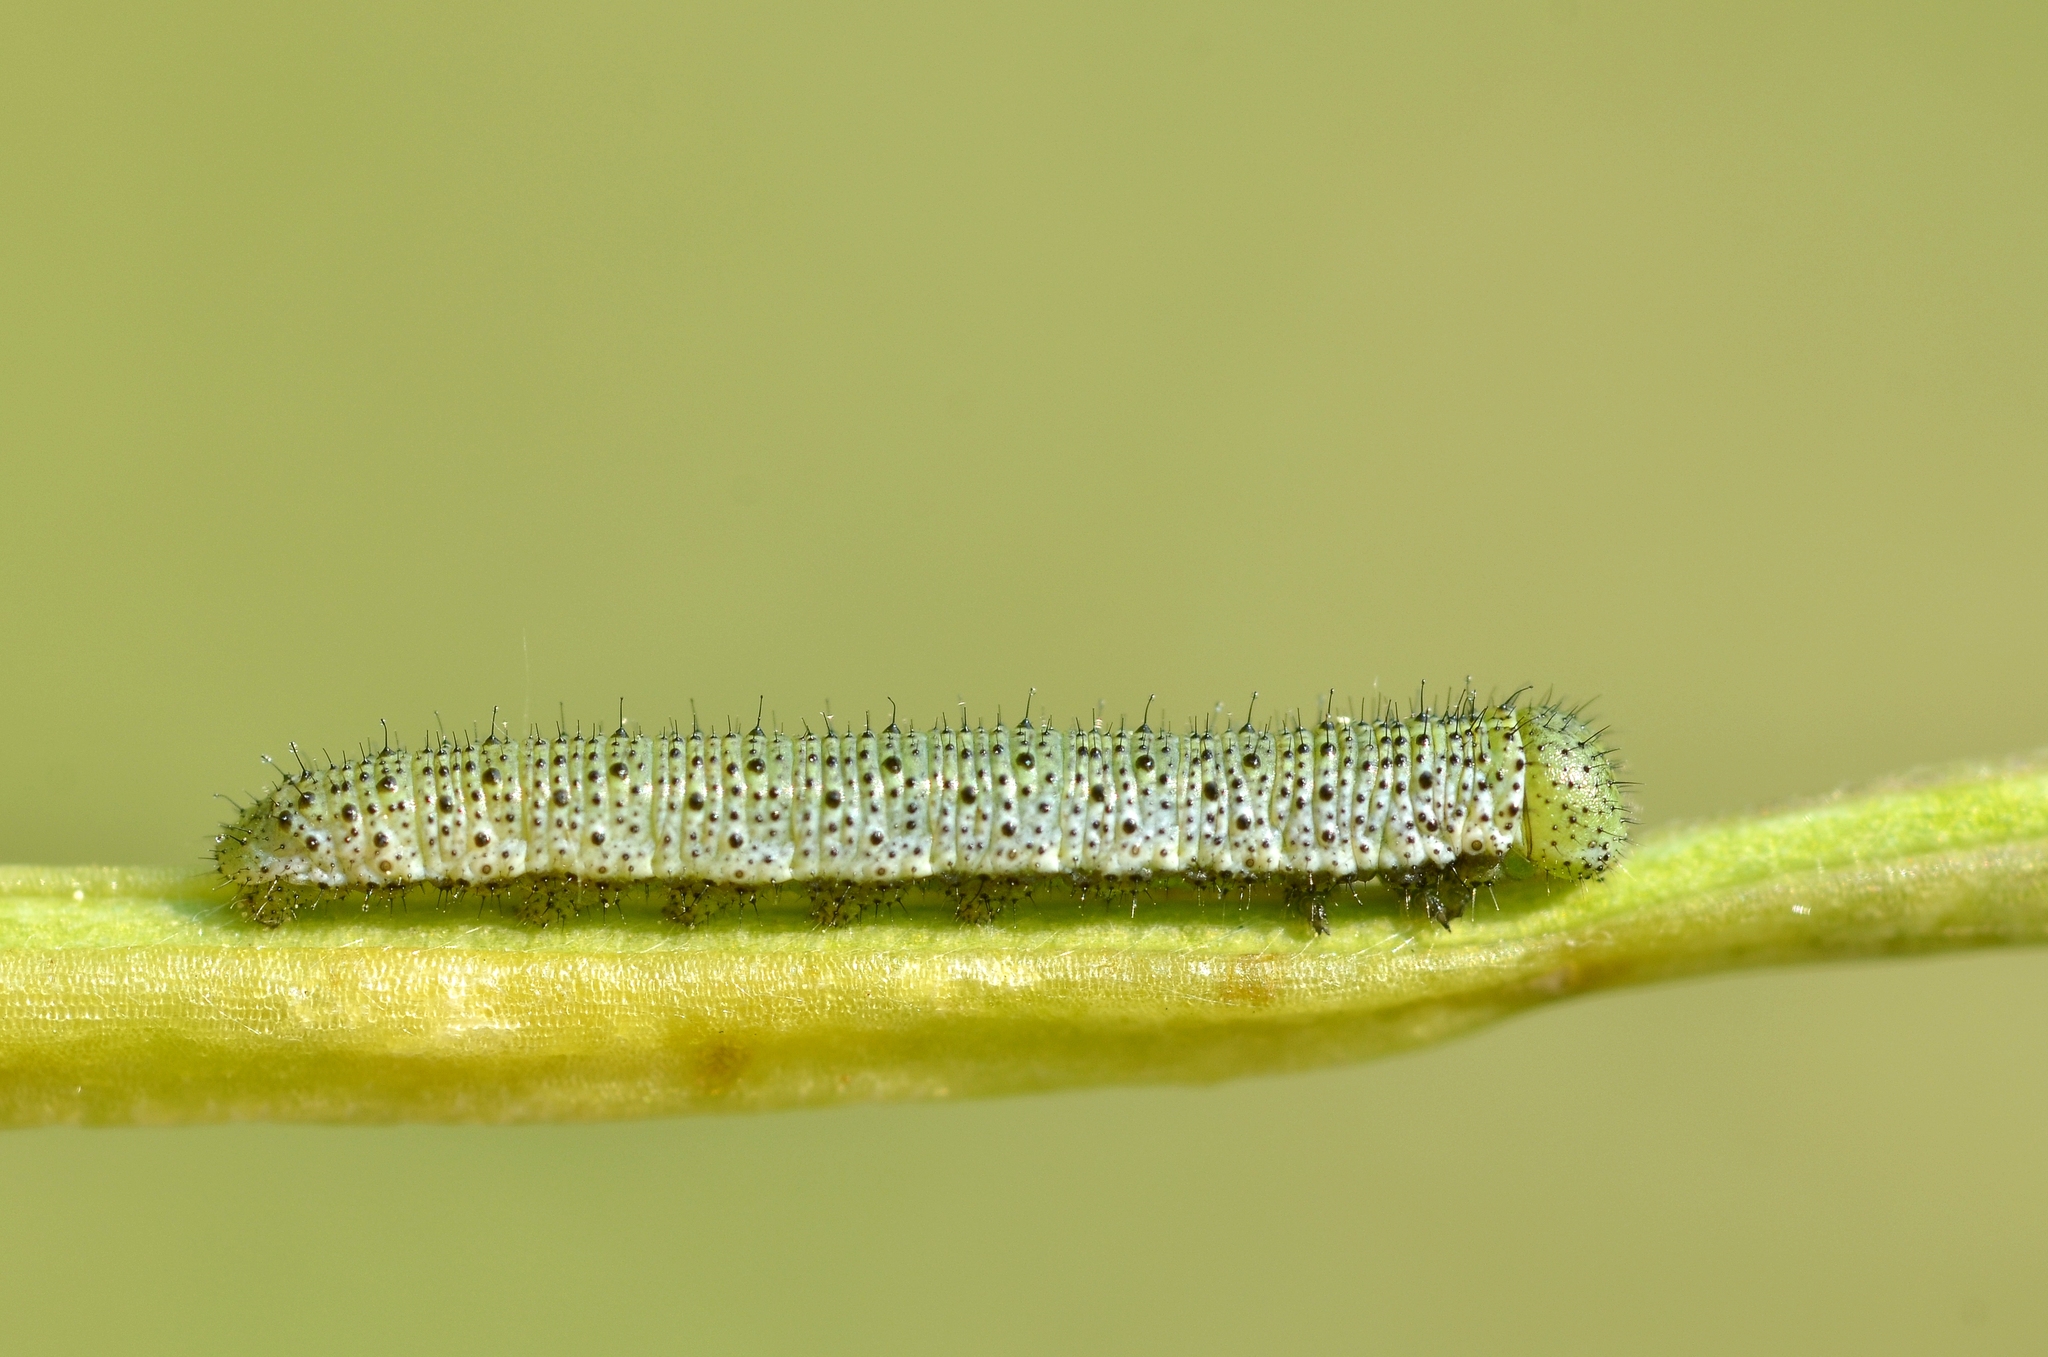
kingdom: Animalia
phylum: Arthropoda
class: Insecta
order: Lepidoptera
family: Pieridae
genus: Anthocharis
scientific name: Anthocharis cardamines
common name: Orange-tip
